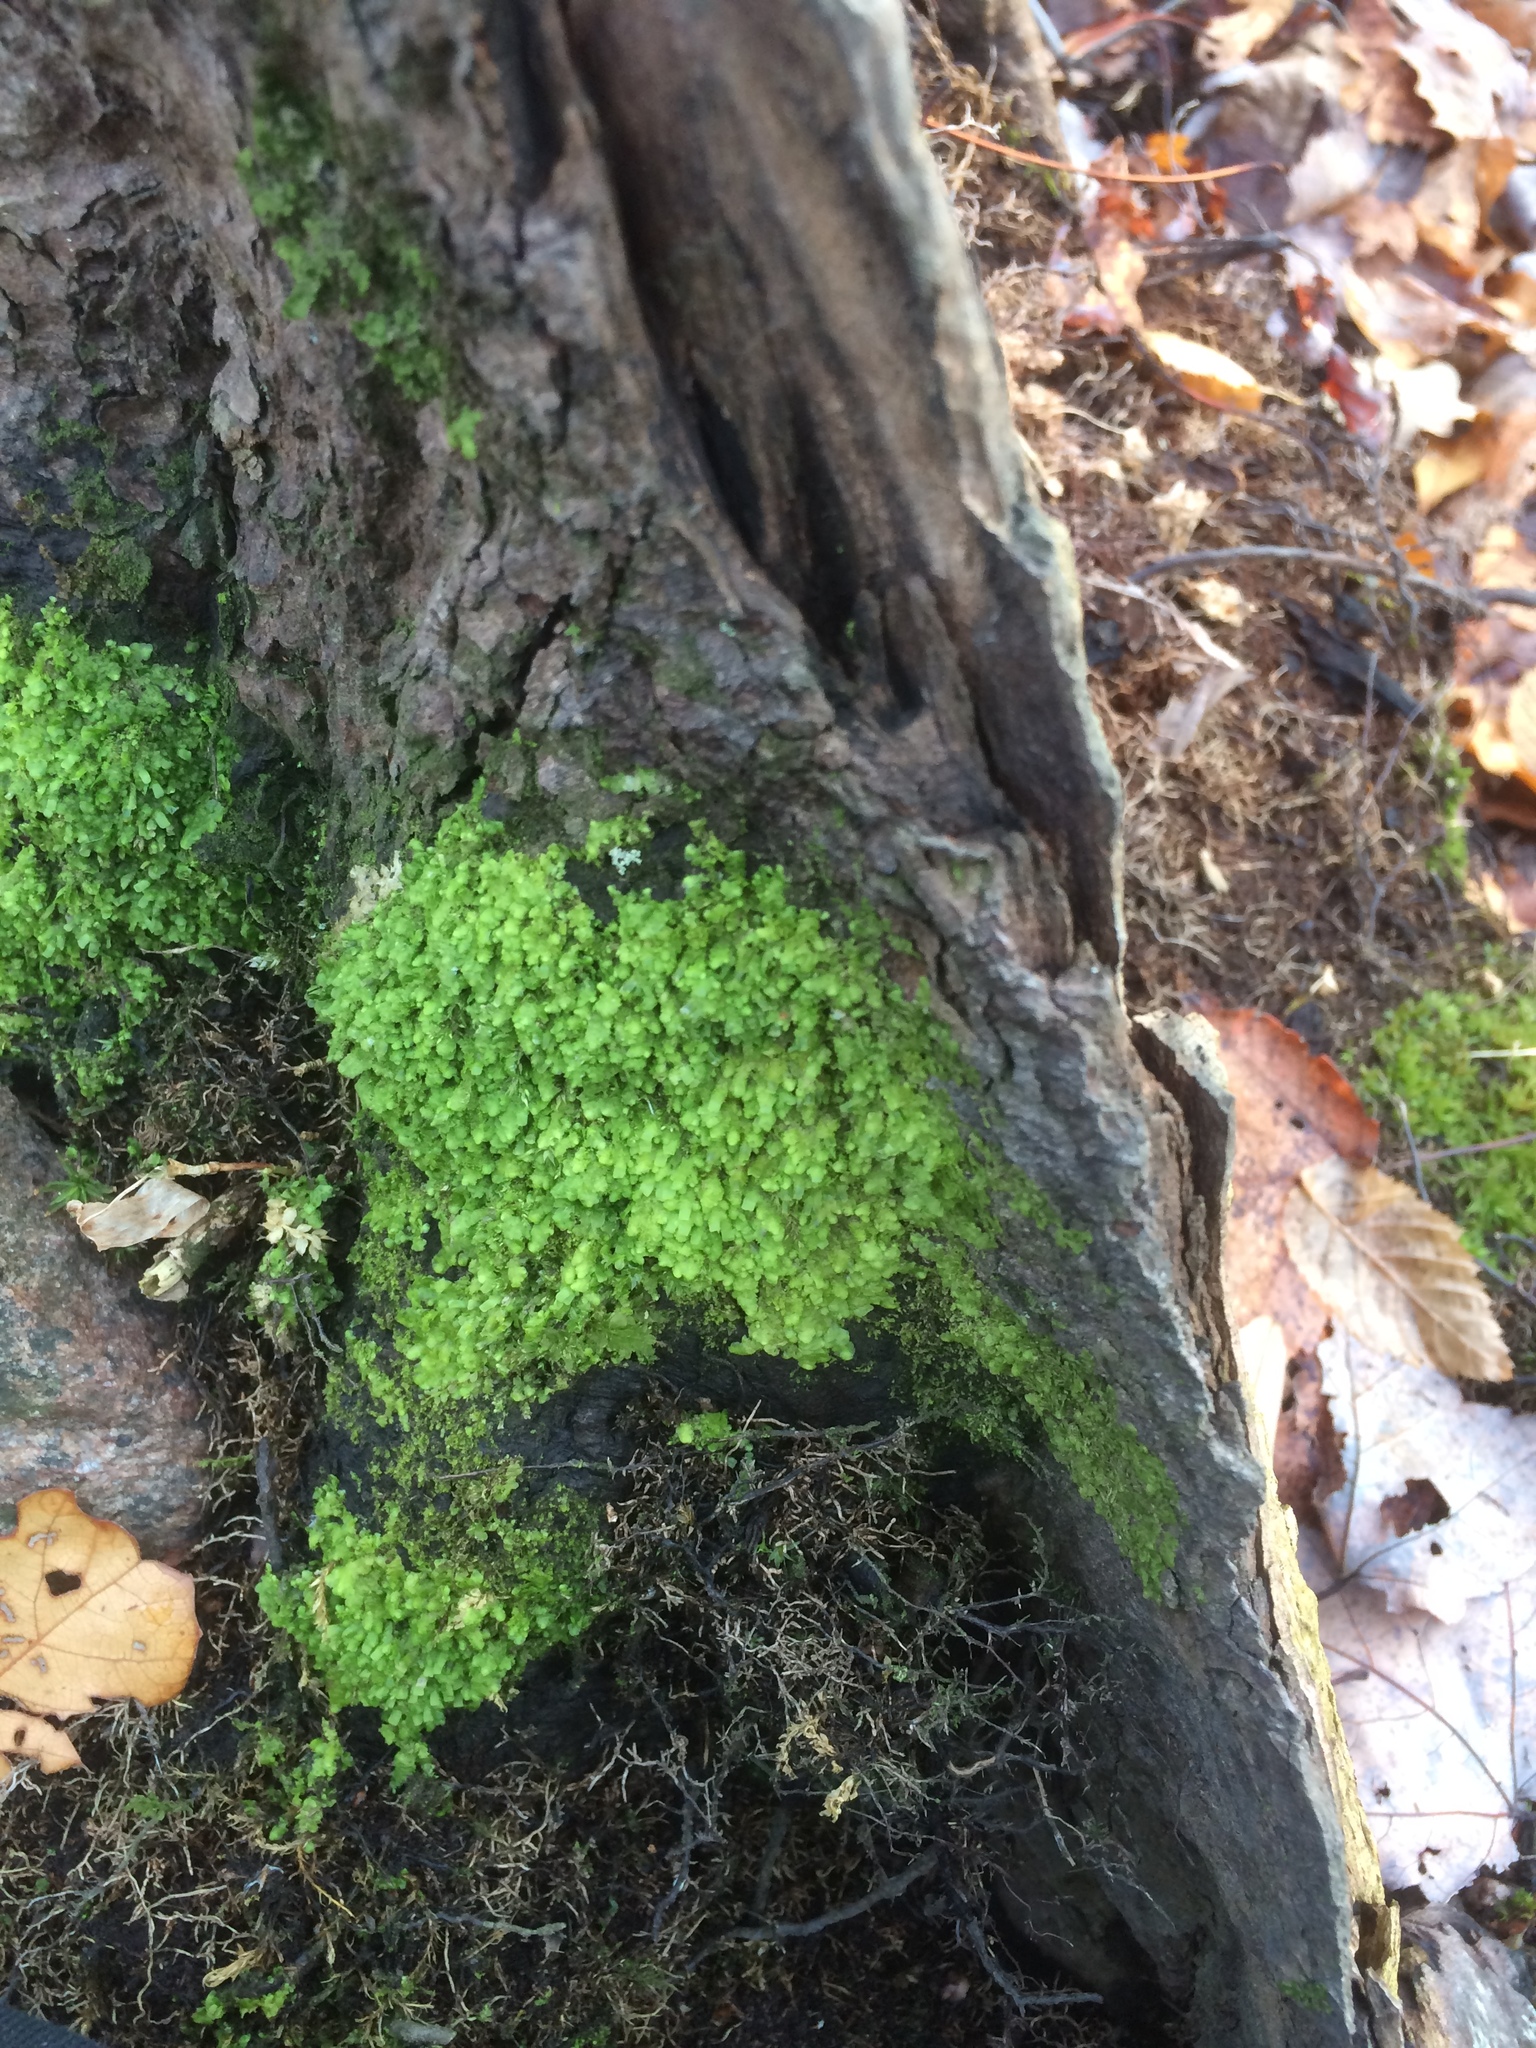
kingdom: Plantae
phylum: Marchantiophyta
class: Jungermanniopsida
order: Porellales
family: Radulaceae
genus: Radula
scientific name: Radula complanata
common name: Flat-leaved scalewort
